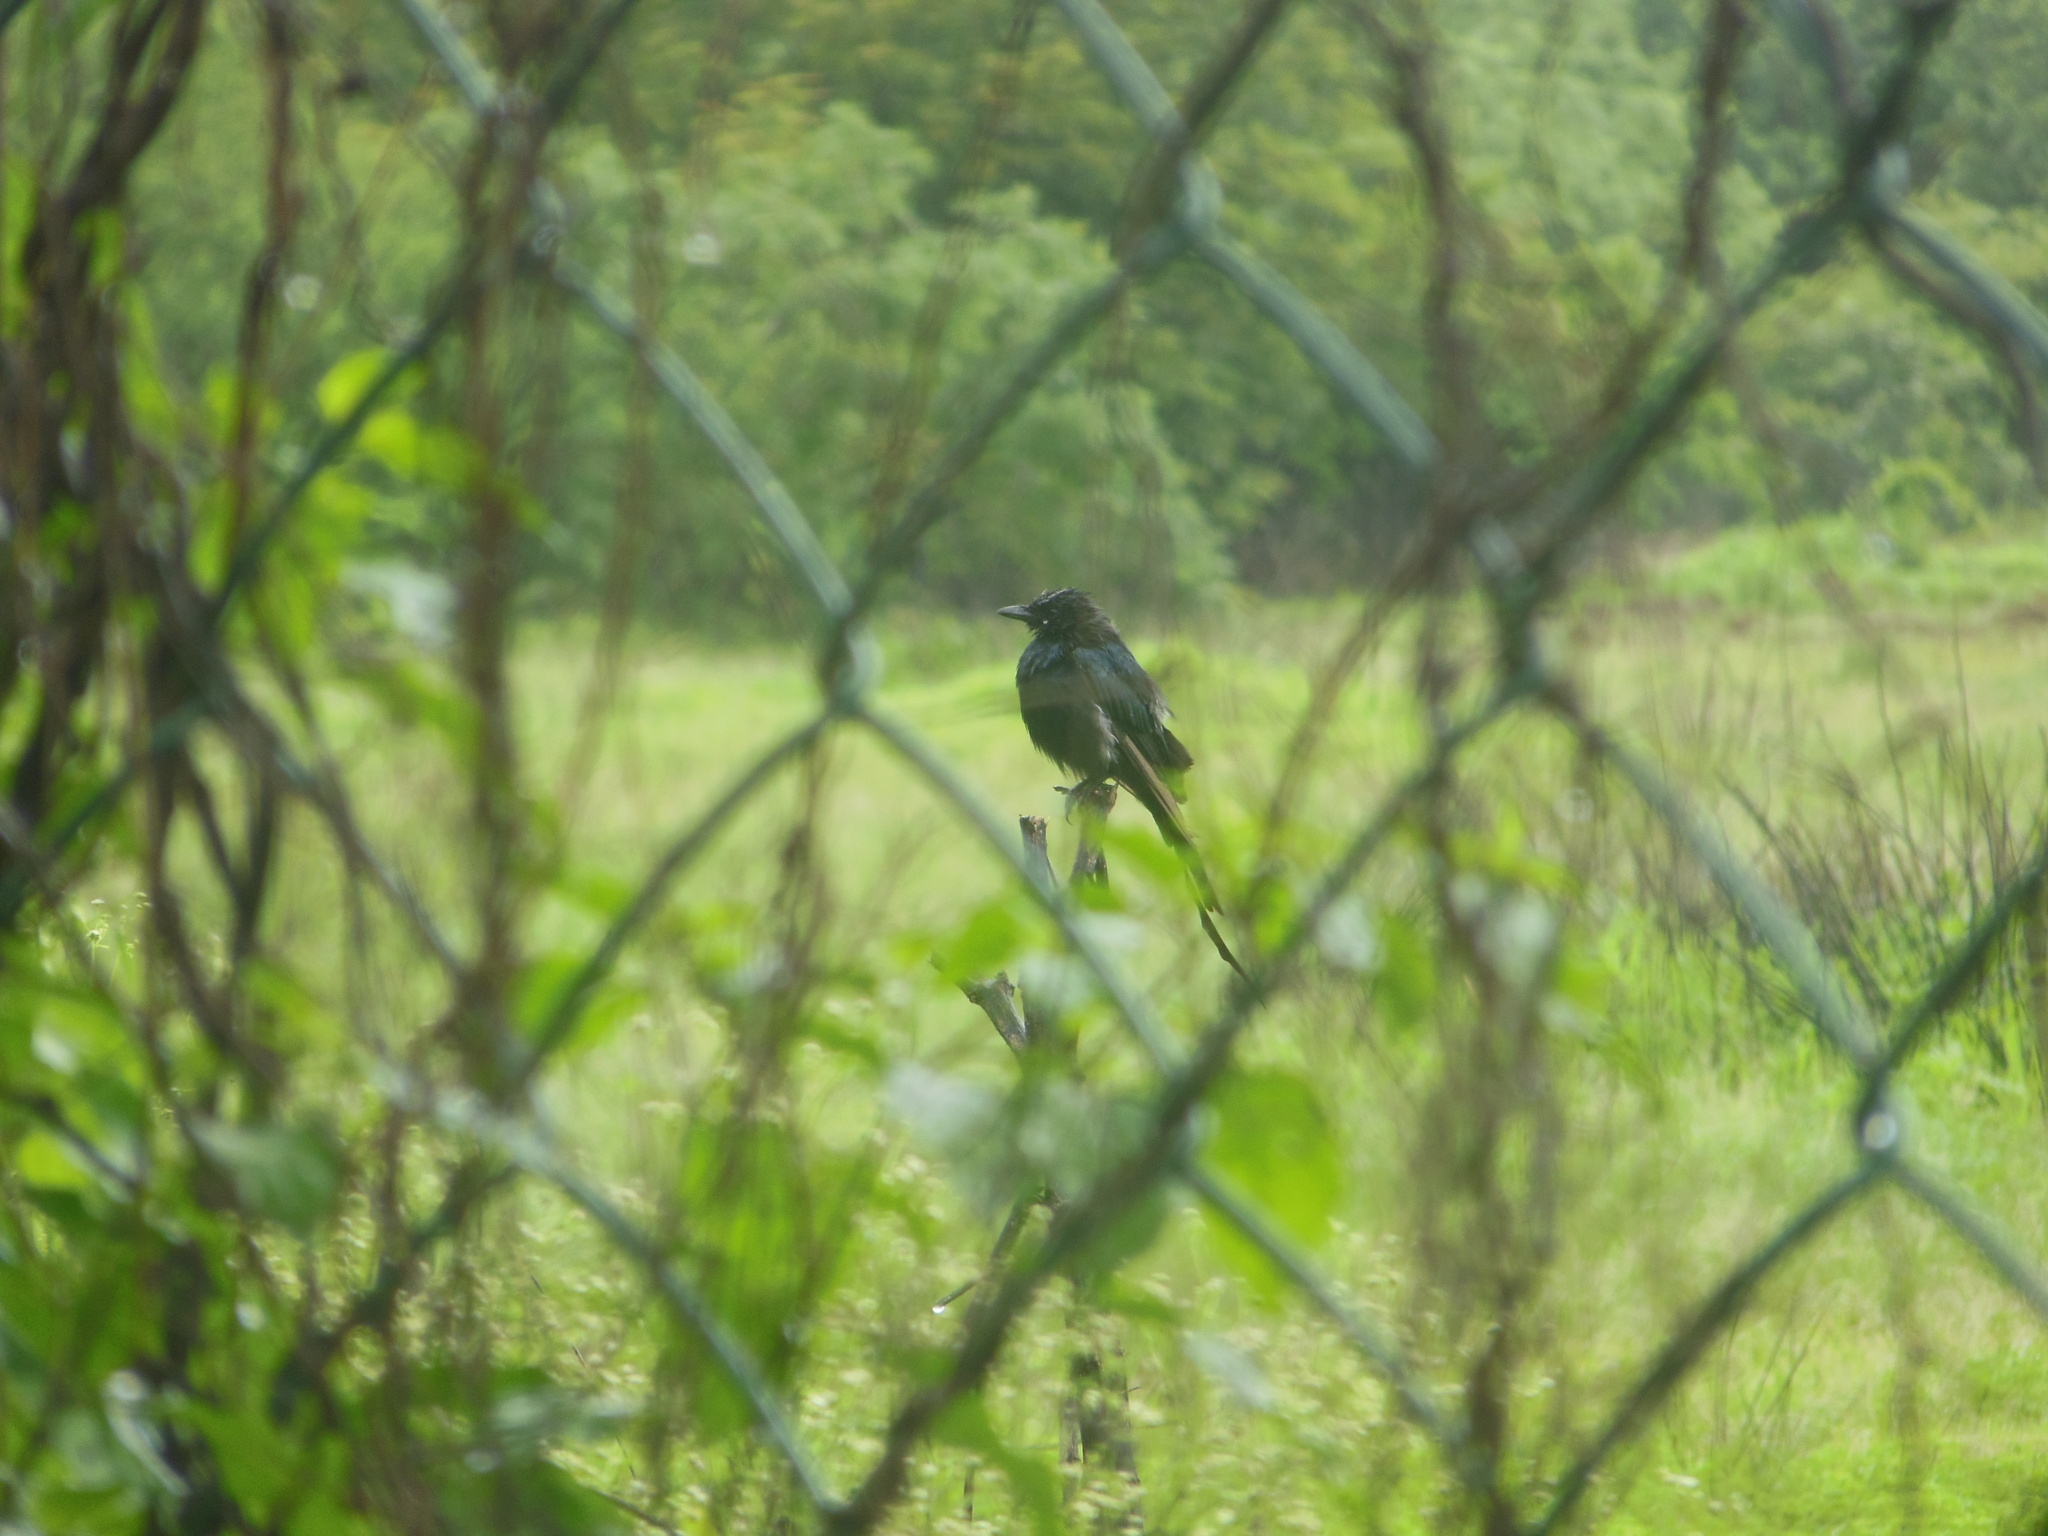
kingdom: Animalia
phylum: Chordata
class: Aves
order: Passeriformes
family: Dicruridae
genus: Dicrurus
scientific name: Dicrurus macrocercus
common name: Black drongo
